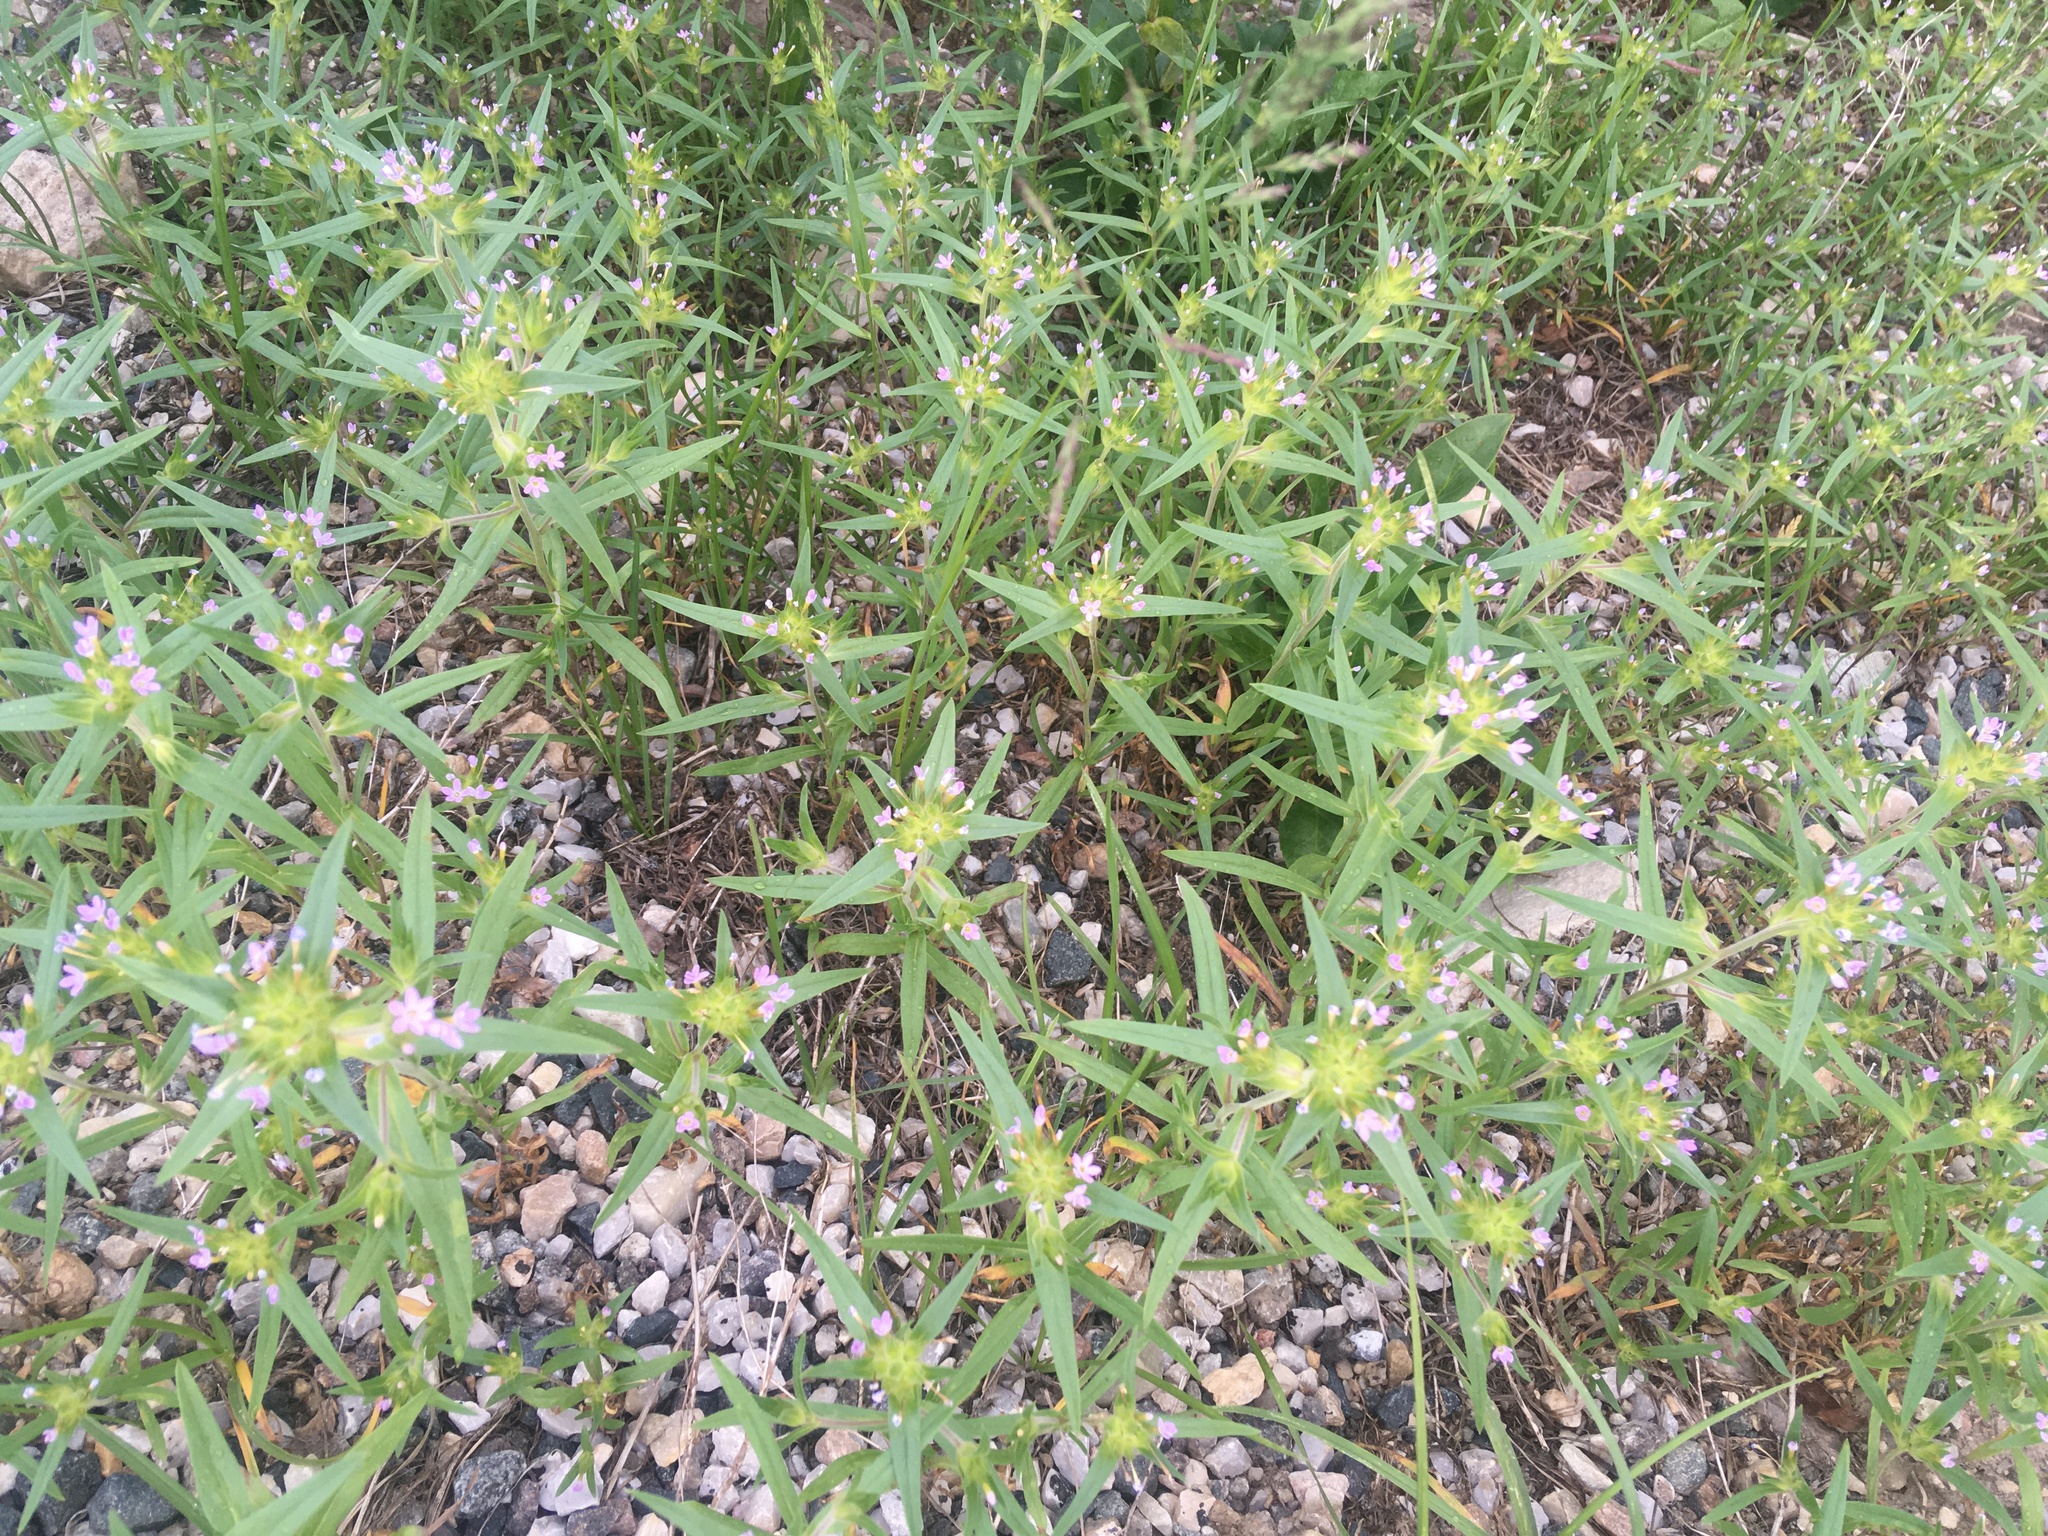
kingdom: Plantae
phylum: Tracheophyta
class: Magnoliopsida
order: Ericales
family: Polemoniaceae
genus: Collomia
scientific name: Collomia linearis
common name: Tiny trumpet
